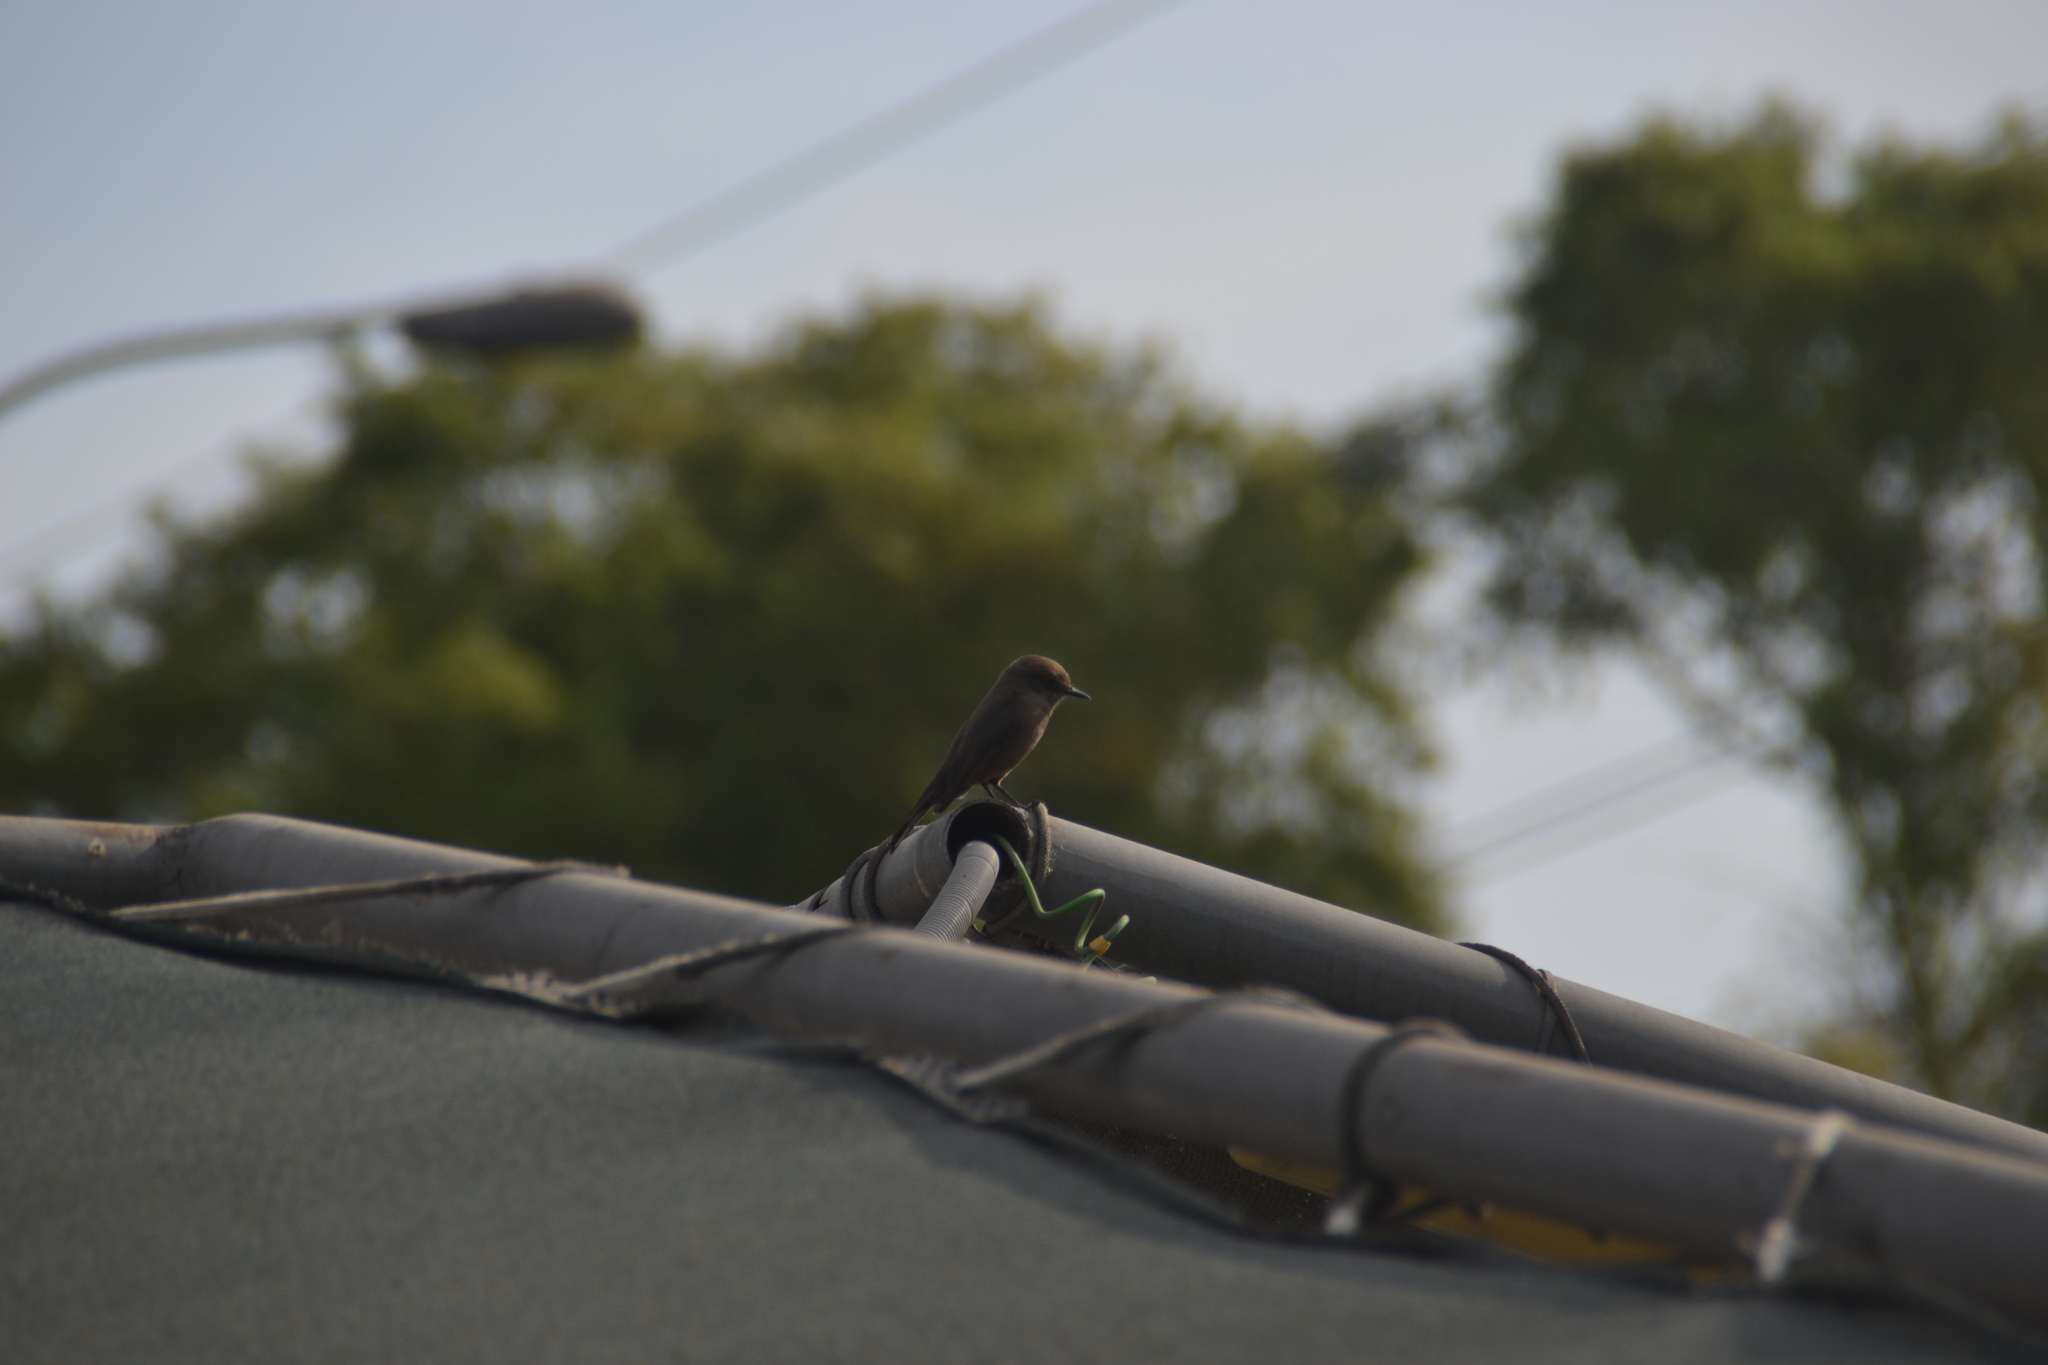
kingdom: Animalia
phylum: Chordata
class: Aves
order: Passeriformes
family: Tyrannidae
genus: Pyrocephalus
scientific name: Pyrocephalus rubinus
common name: Vermilion flycatcher
